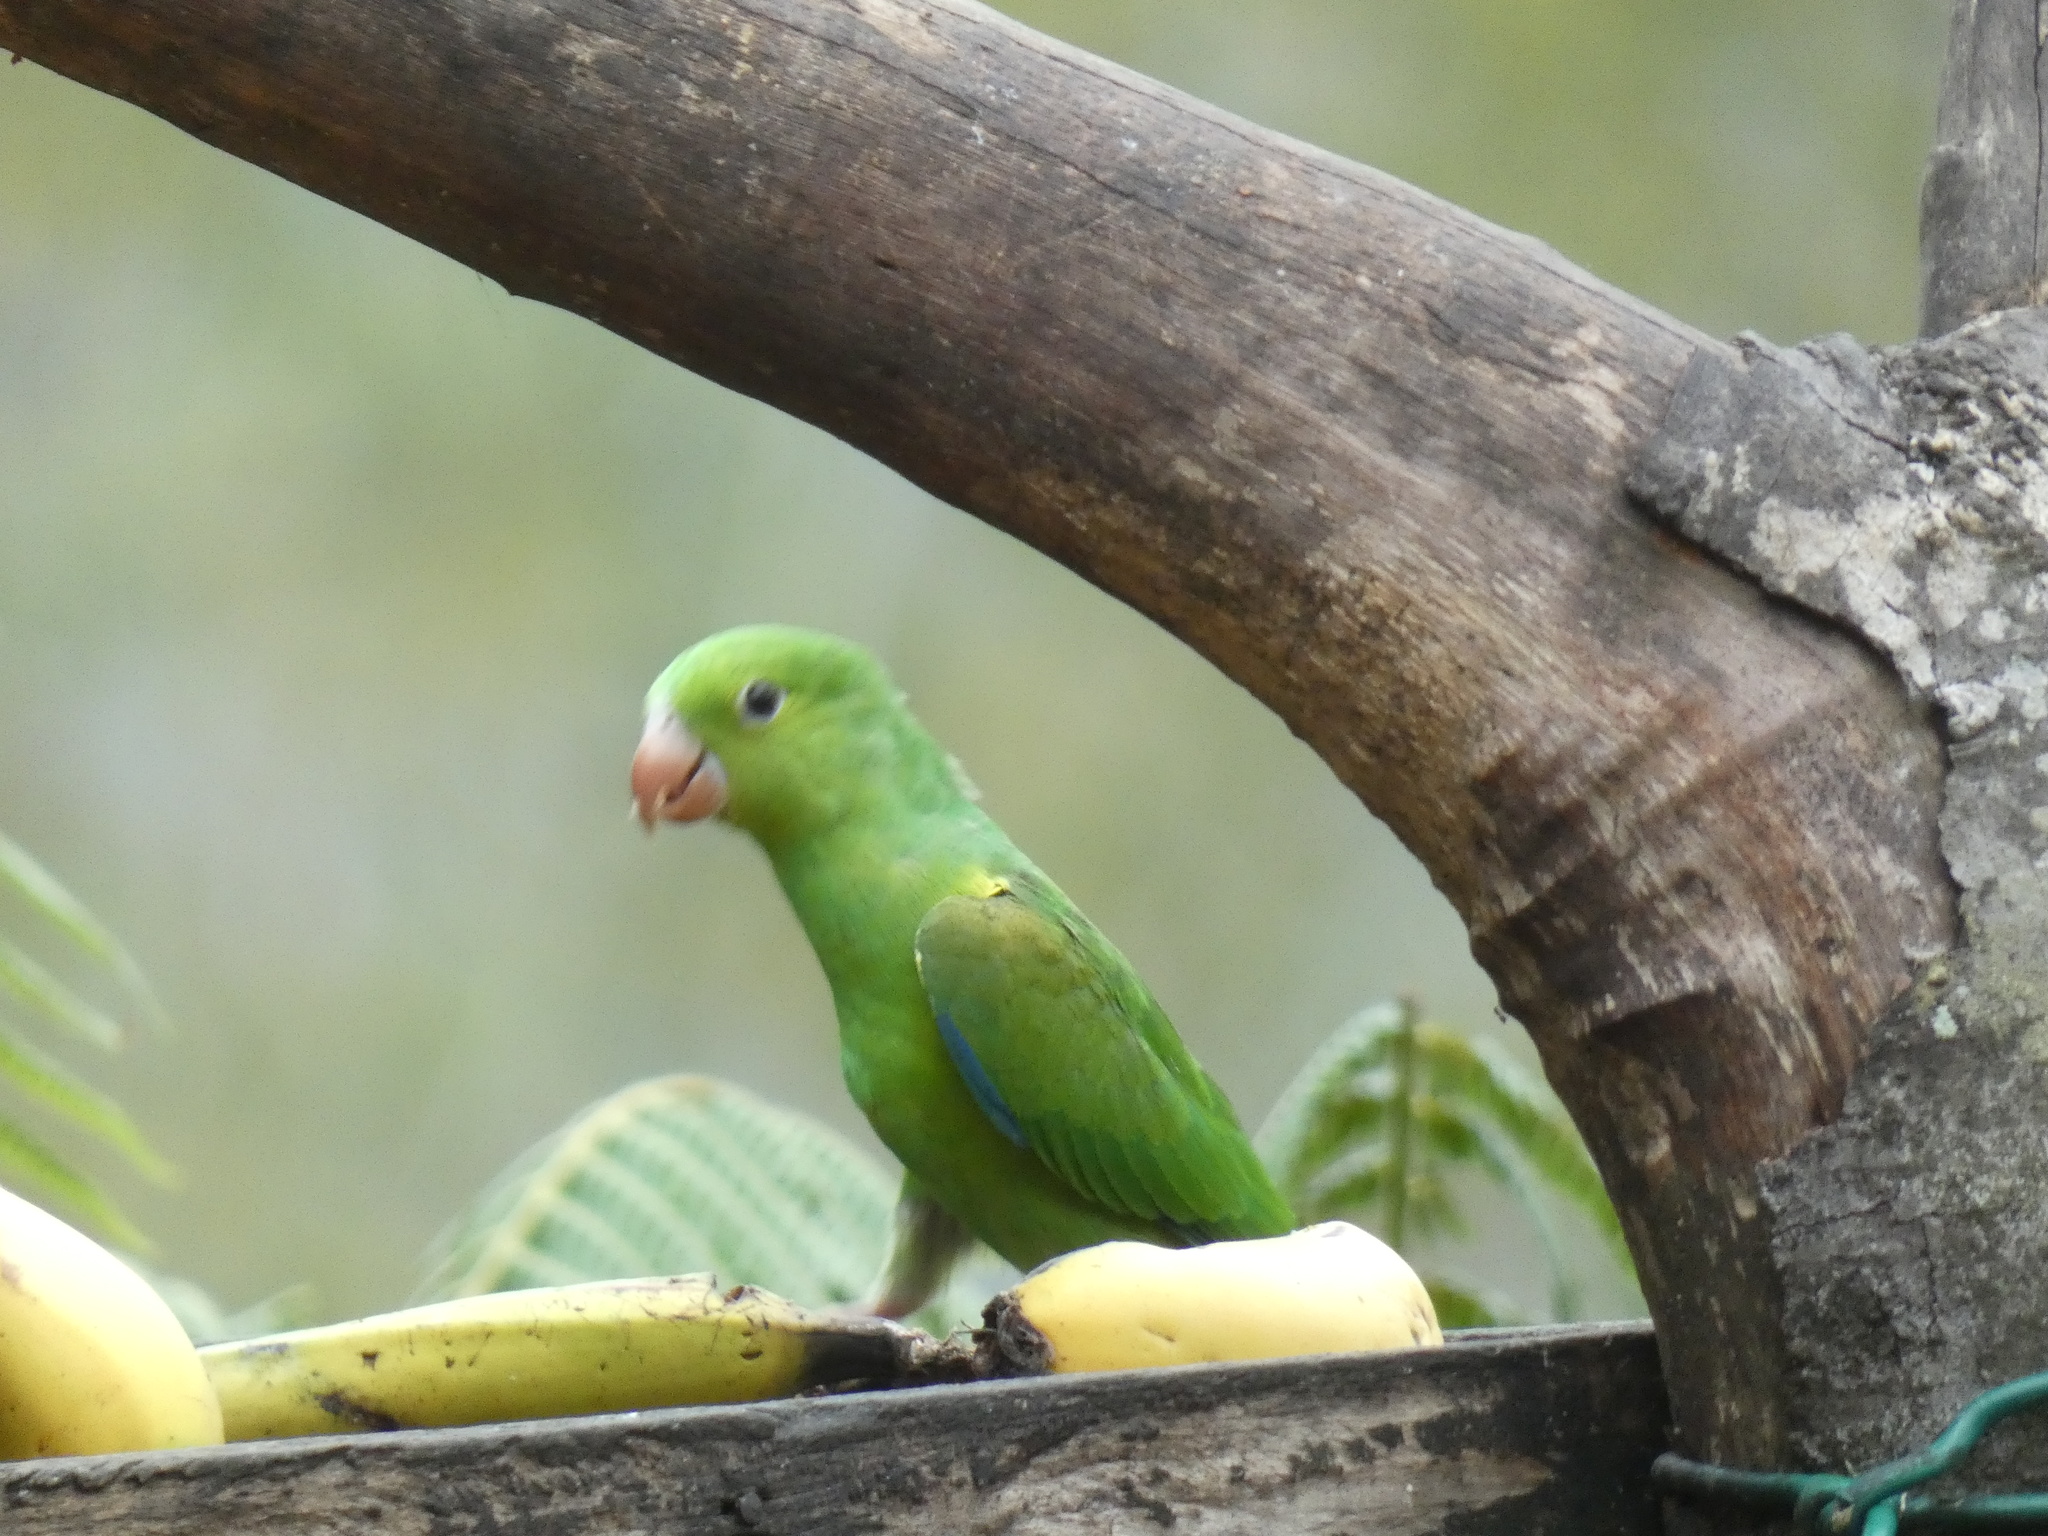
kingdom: Animalia
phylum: Chordata
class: Aves
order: Psittaciformes
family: Psittacidae
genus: Brotogeris
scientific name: Brotogeris tirica
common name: Plain parakeet
